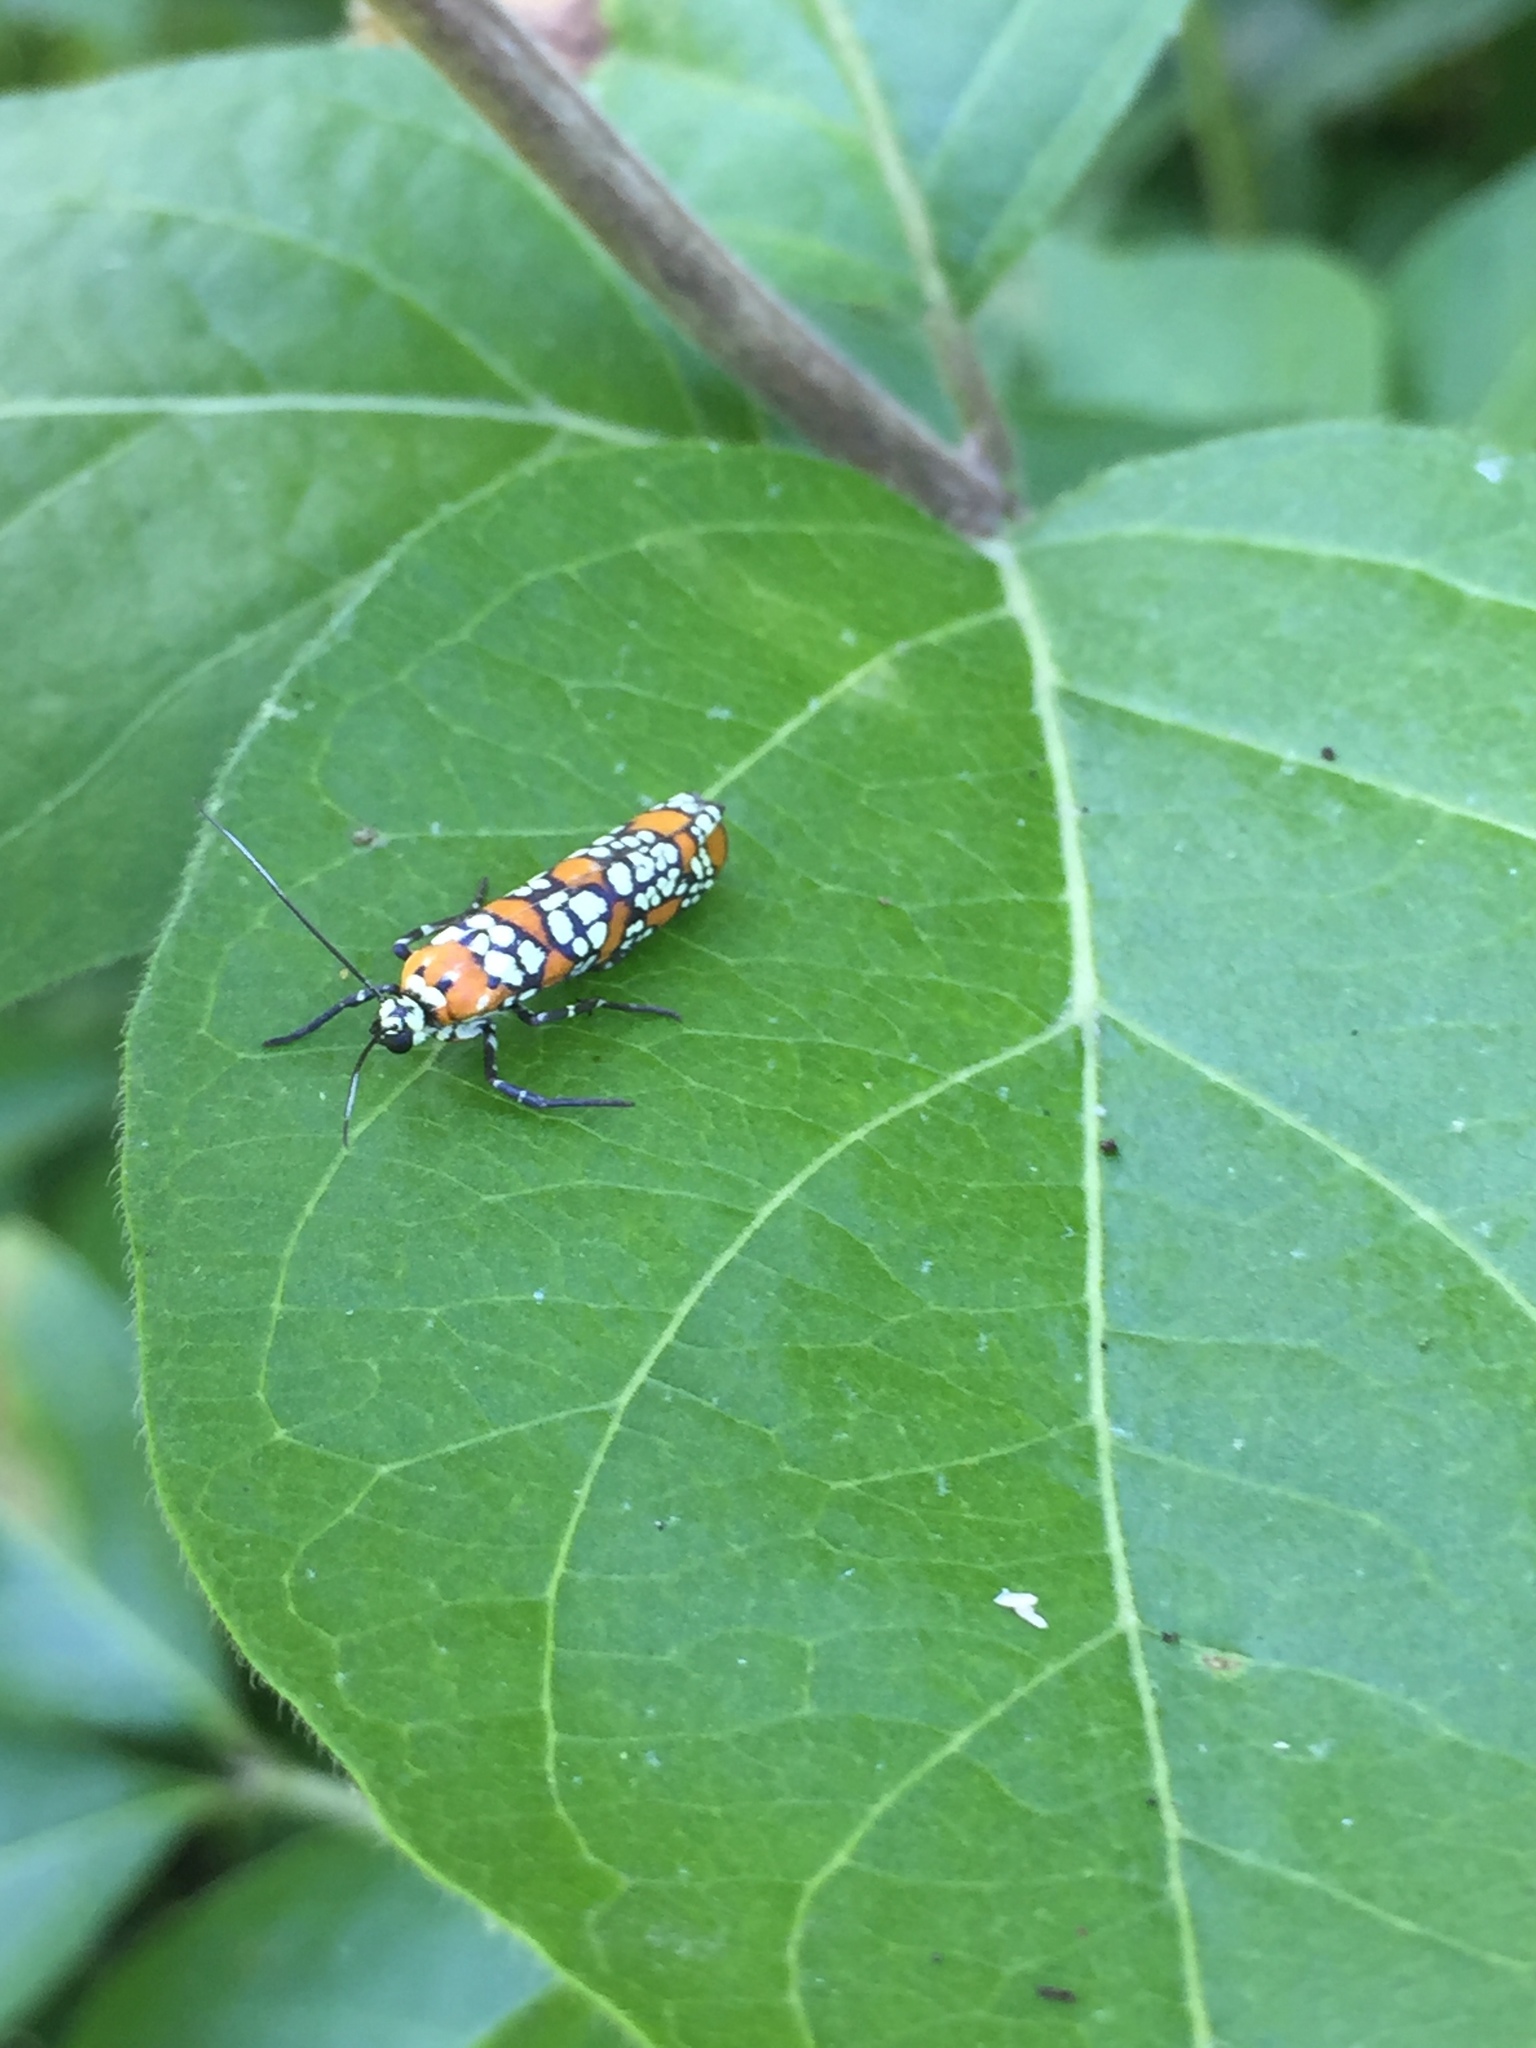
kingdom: Animalia
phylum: Arthropoda
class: Insecta
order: Lepidoptera
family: Attevidae
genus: Atteva
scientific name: Atteva punctella
